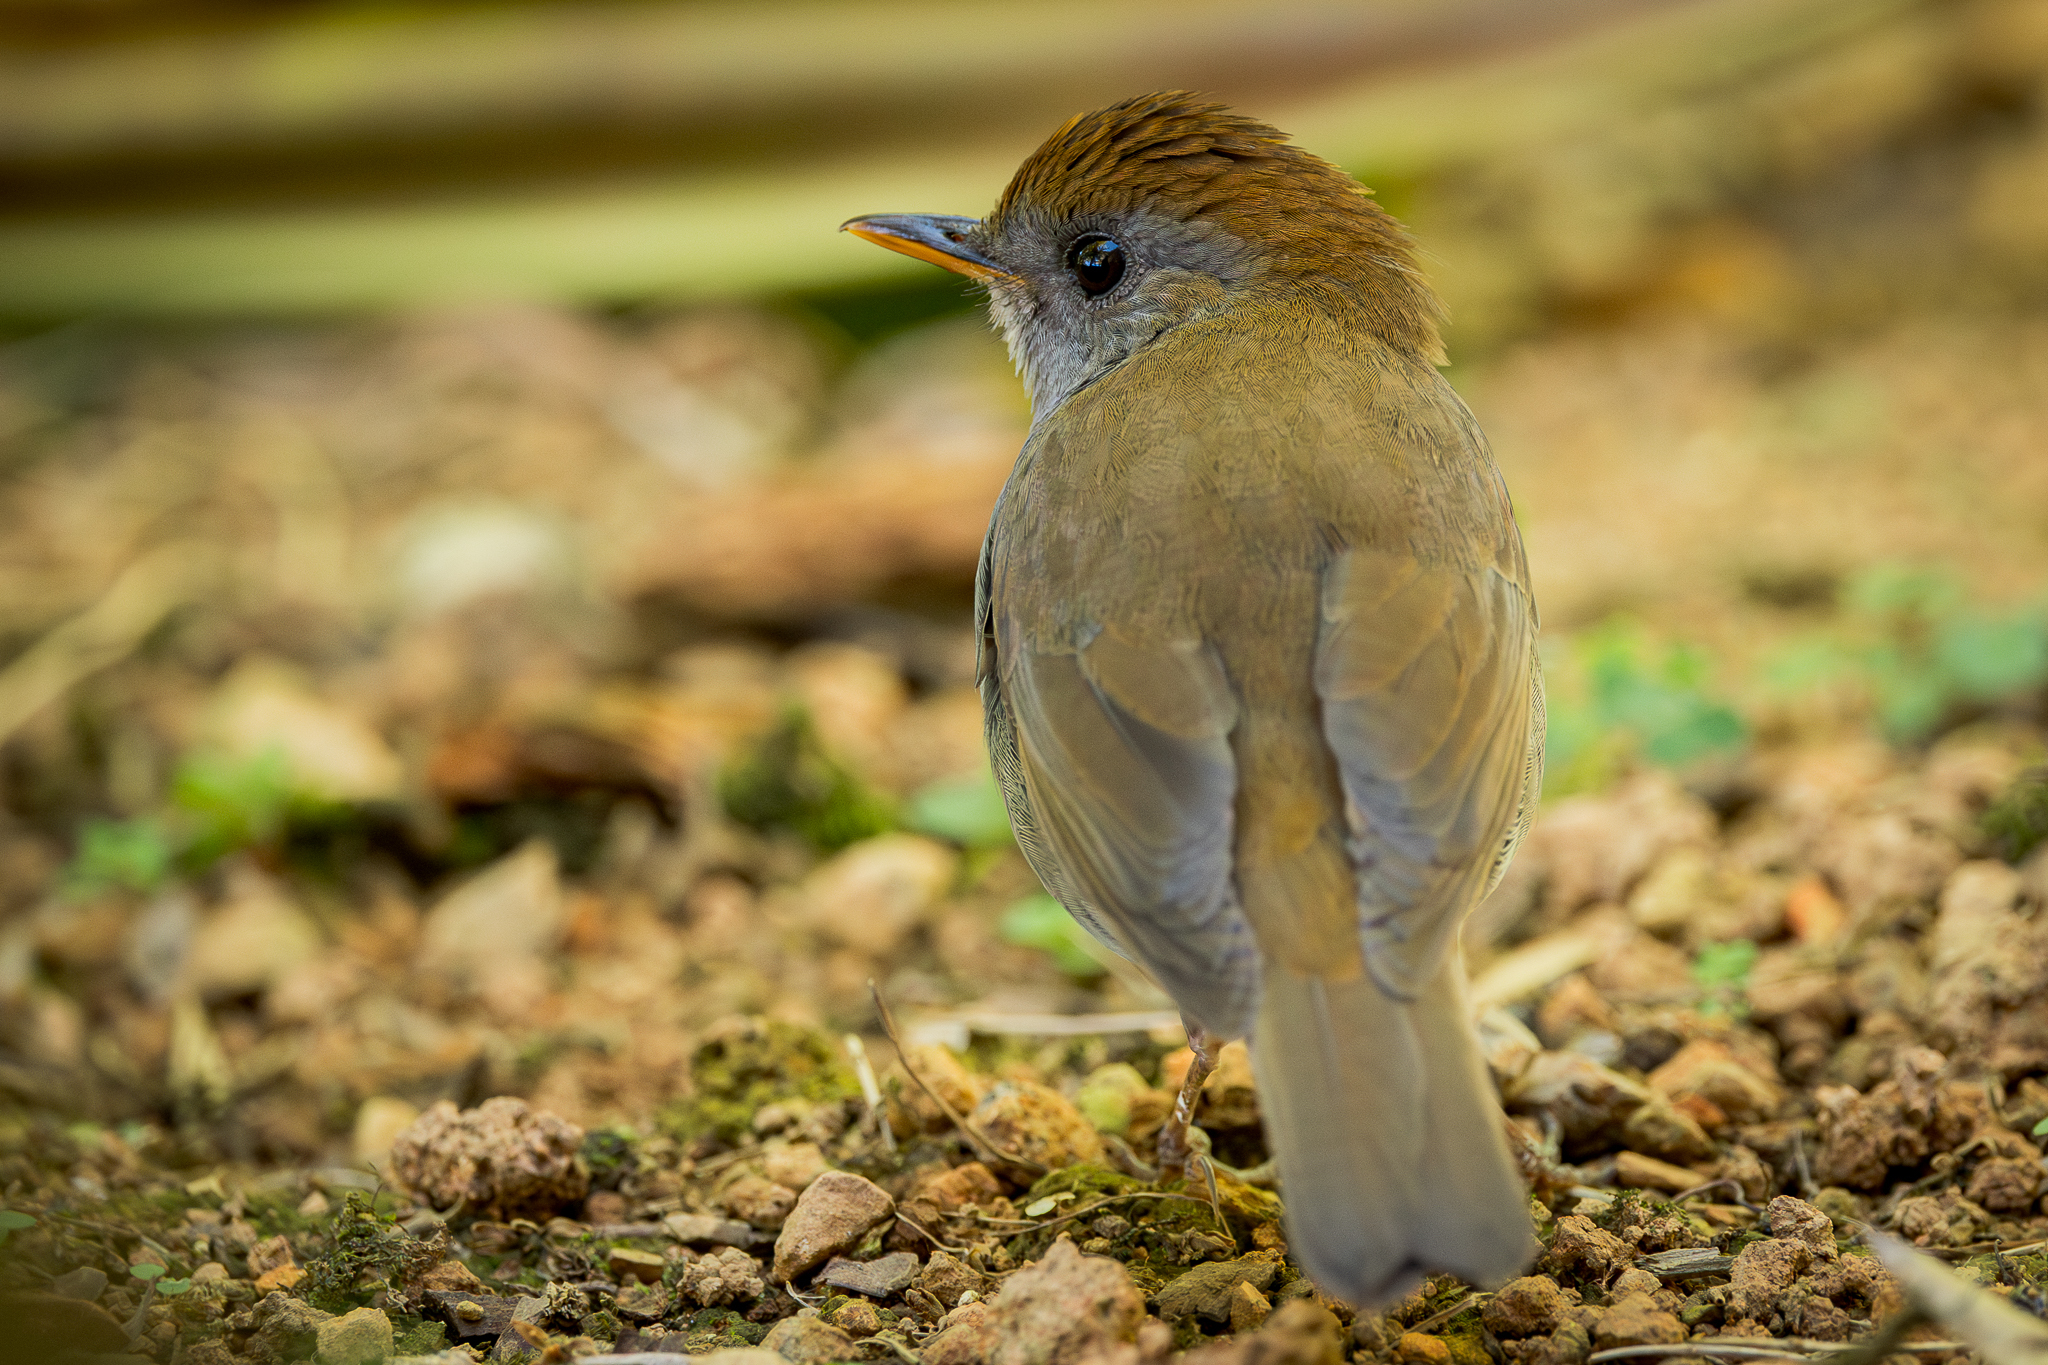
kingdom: Animalia
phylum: Chordata
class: Aves
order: Passeriformes
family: Turdidae
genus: Catharus
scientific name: Catharus frantzii
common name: Ruddy-capped nightingale-thrush
